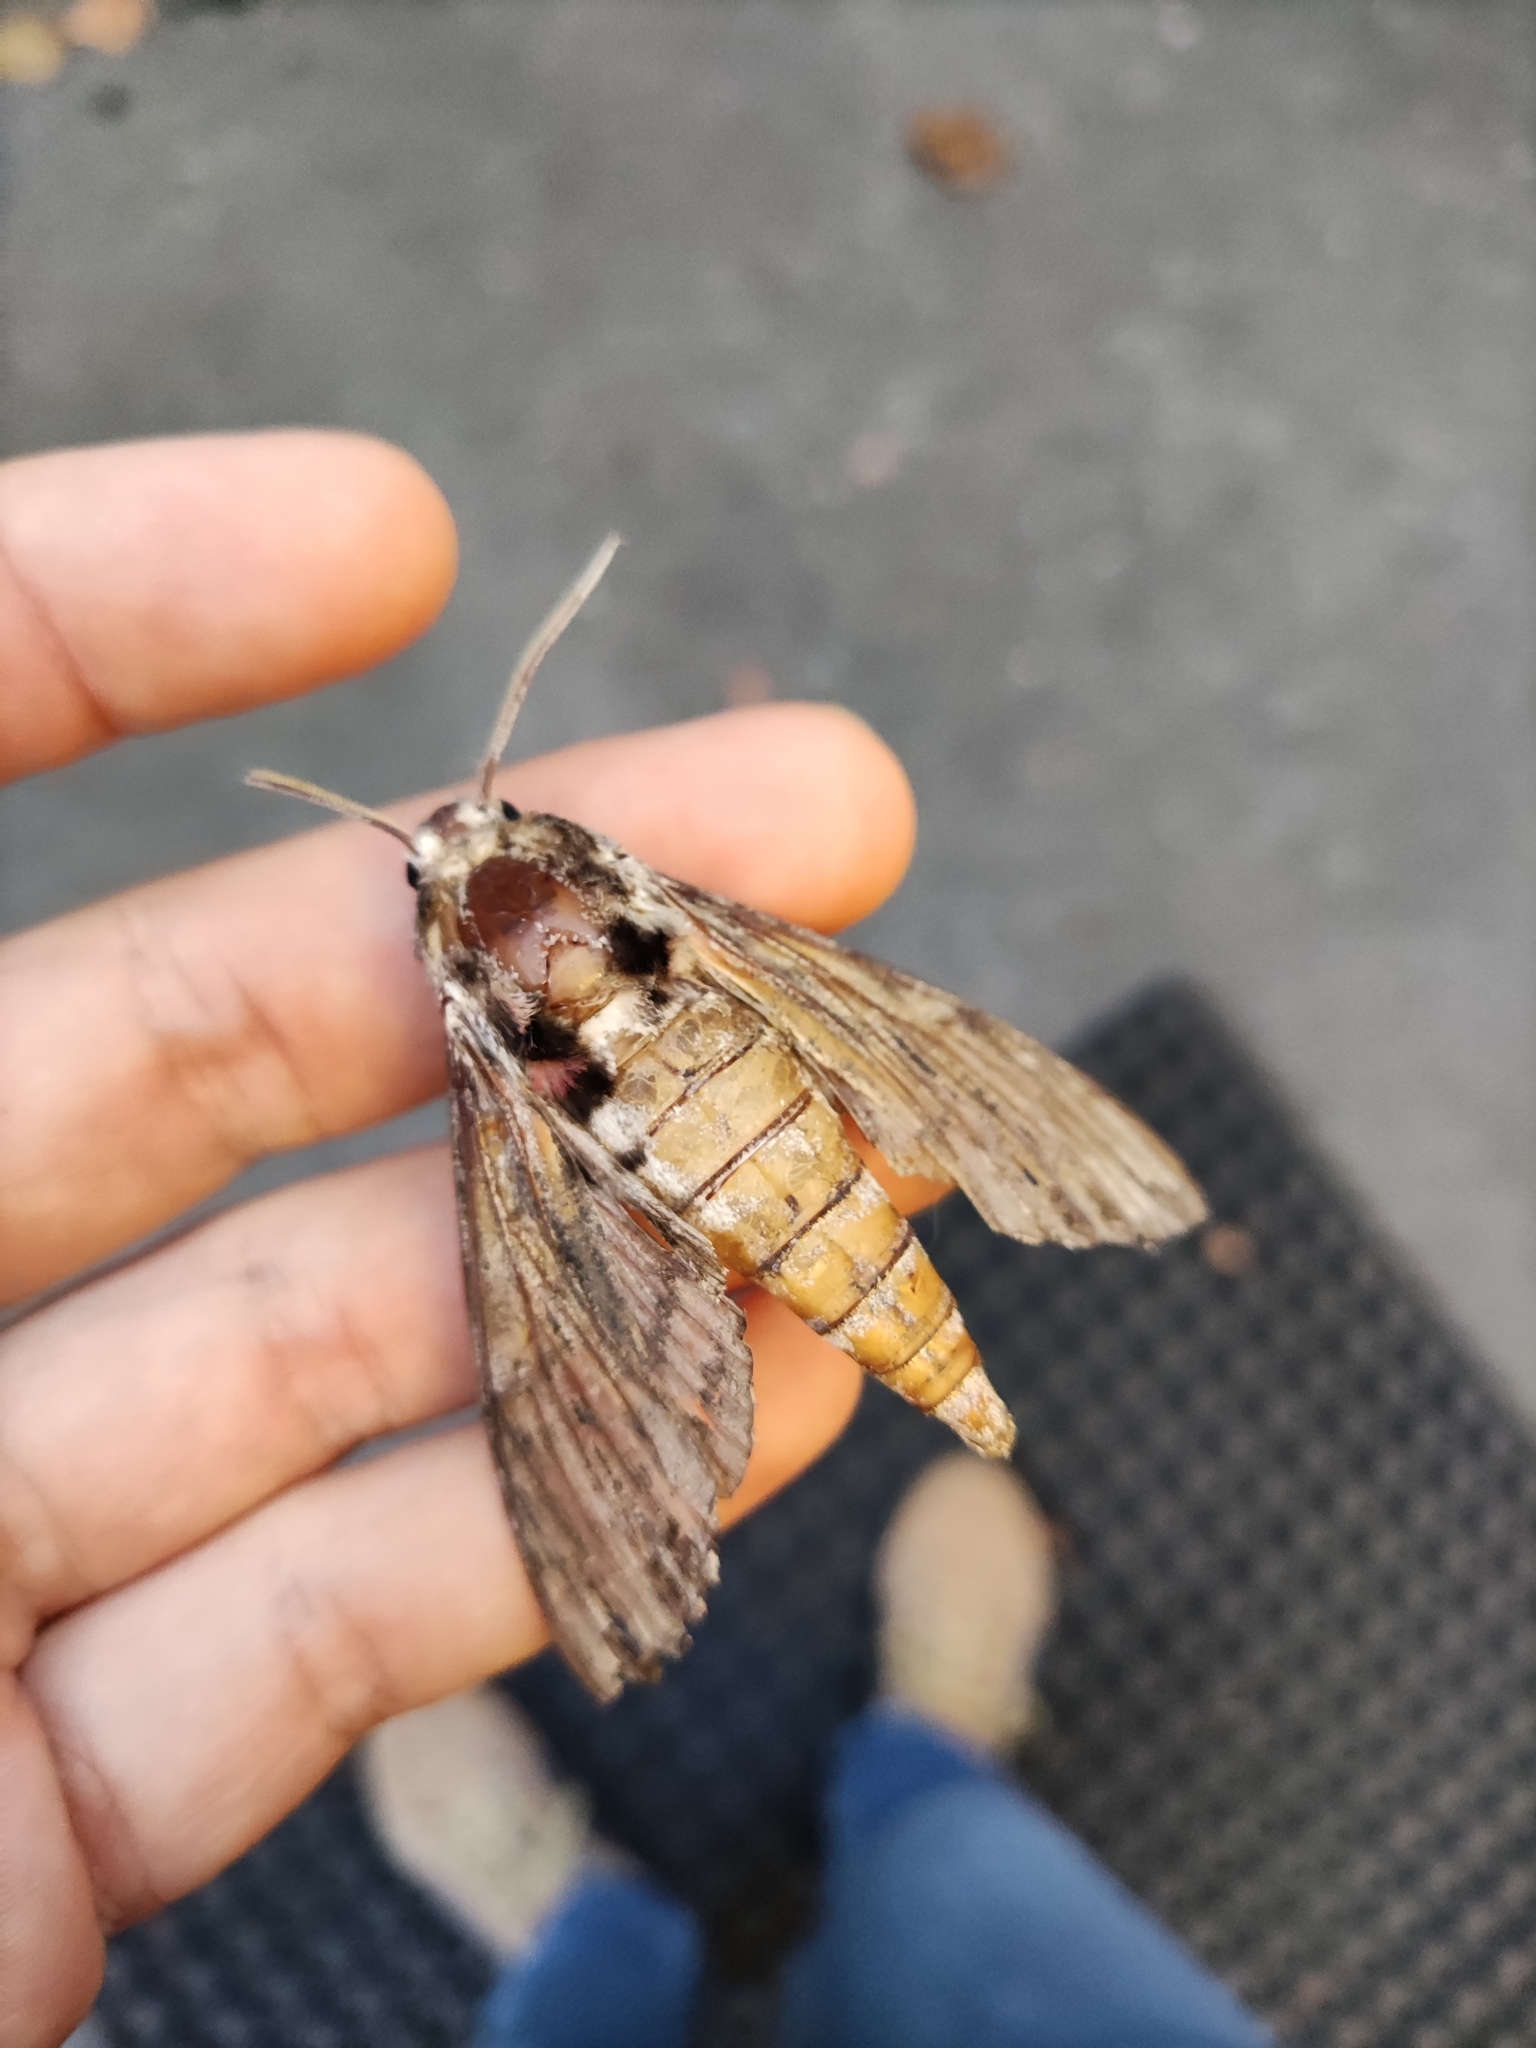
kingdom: Animalia
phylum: Arthropoda
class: Insecta
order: Lepidoptera
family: Sphingidae
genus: Agrius
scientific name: Agrius convolvuli
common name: Convolvulus hawkmoth
